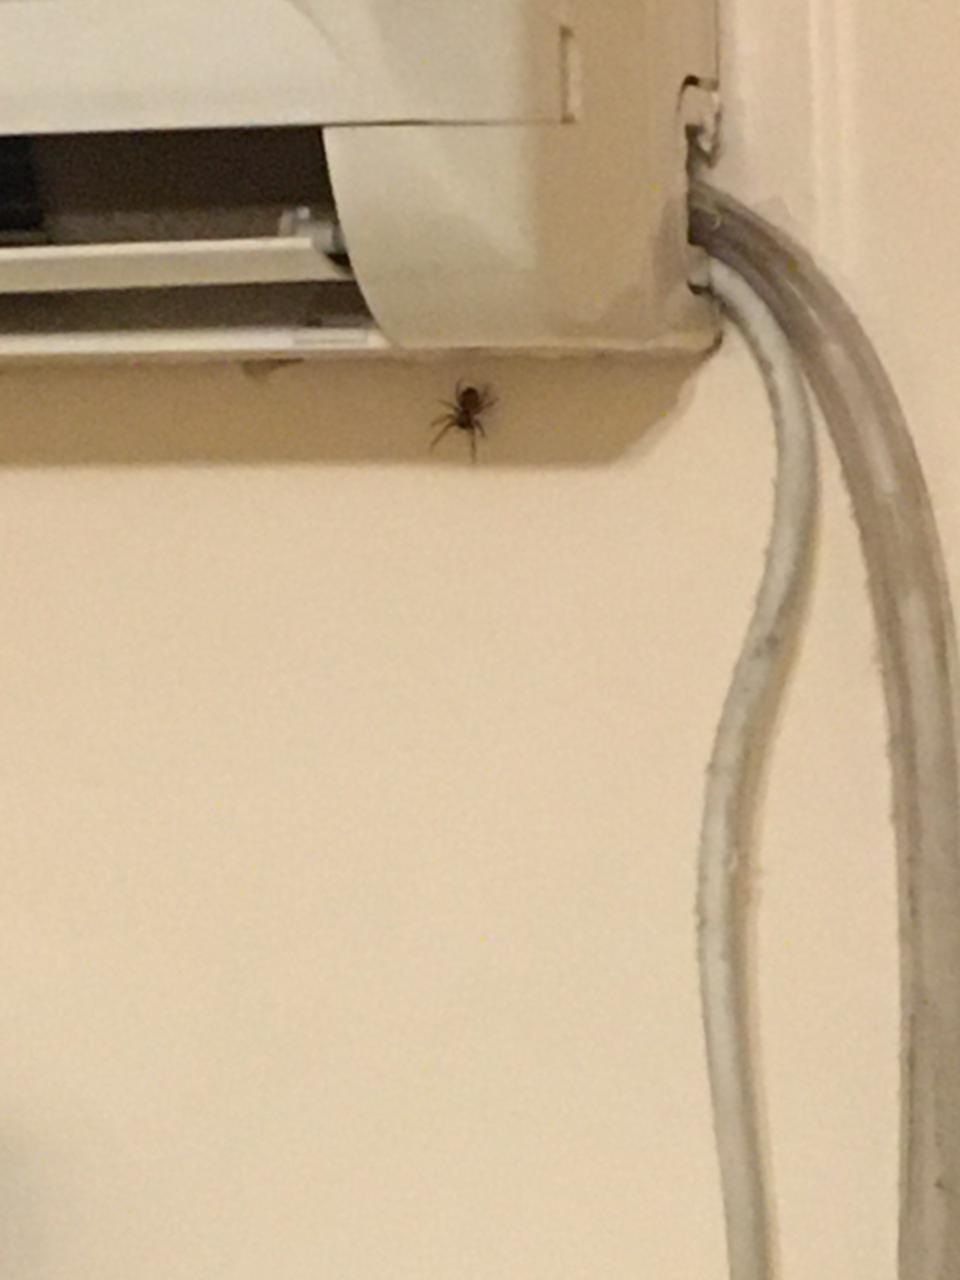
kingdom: Animalia
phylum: Arthropoda
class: Arachnida
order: Araneae
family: Desidae
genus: Badumna
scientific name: Badumna longinqua
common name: Gray house spider
